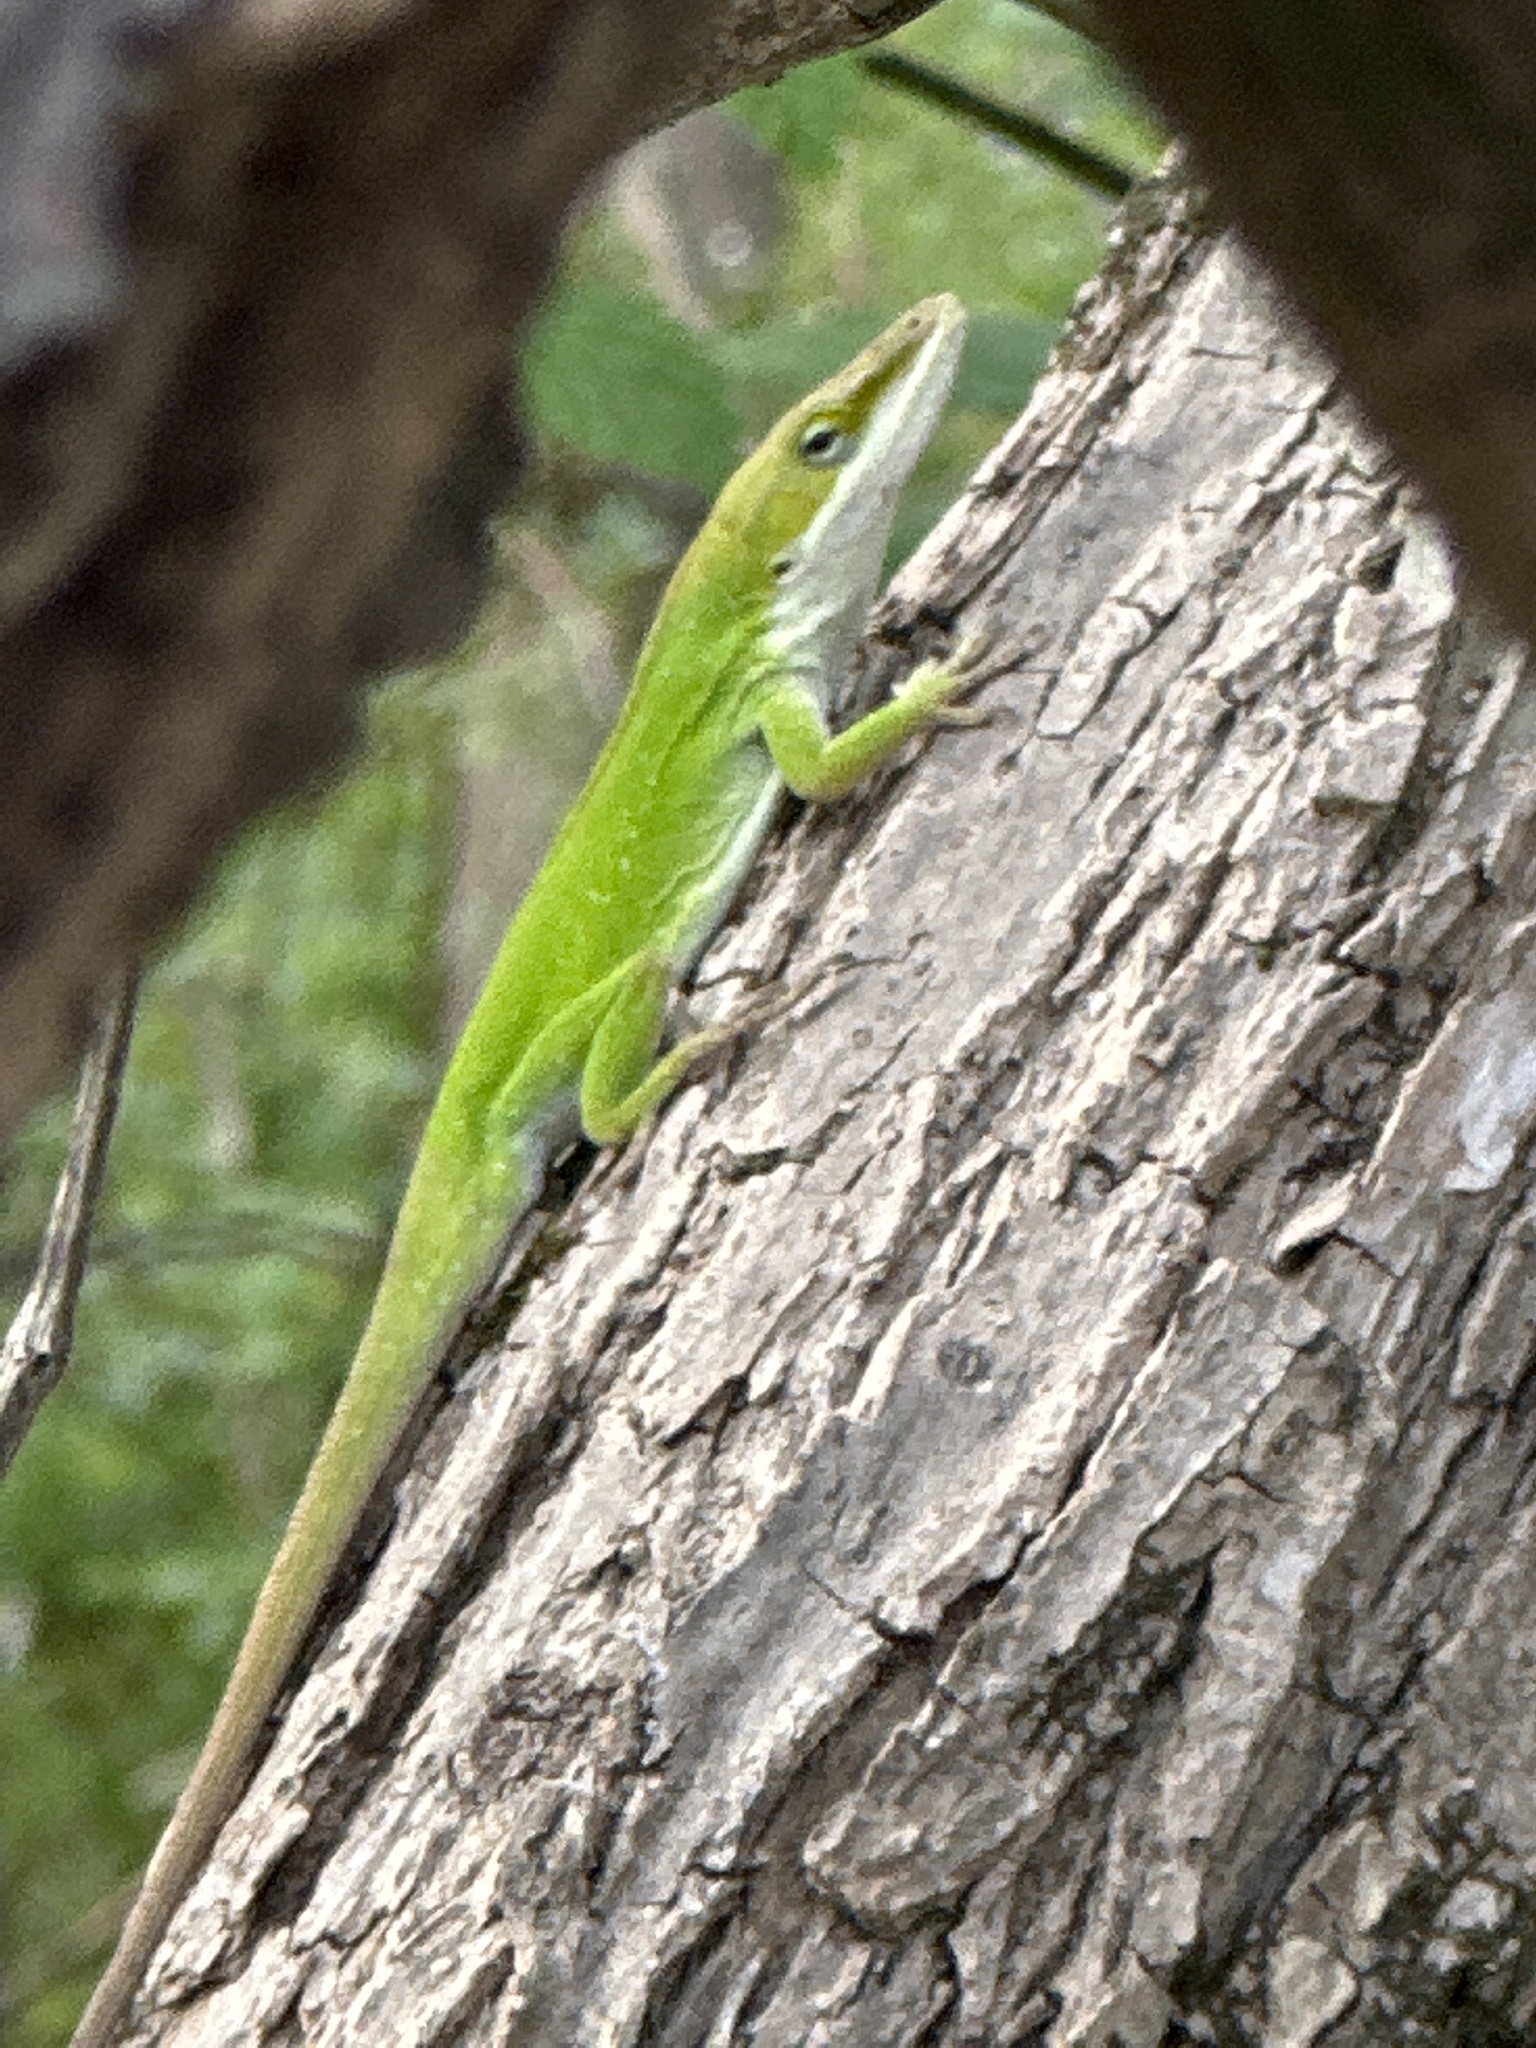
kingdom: Animalia
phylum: Chordata
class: Squamata
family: Dactyloidae
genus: Anolis
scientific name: Anolis carolinensis
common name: Green anole
